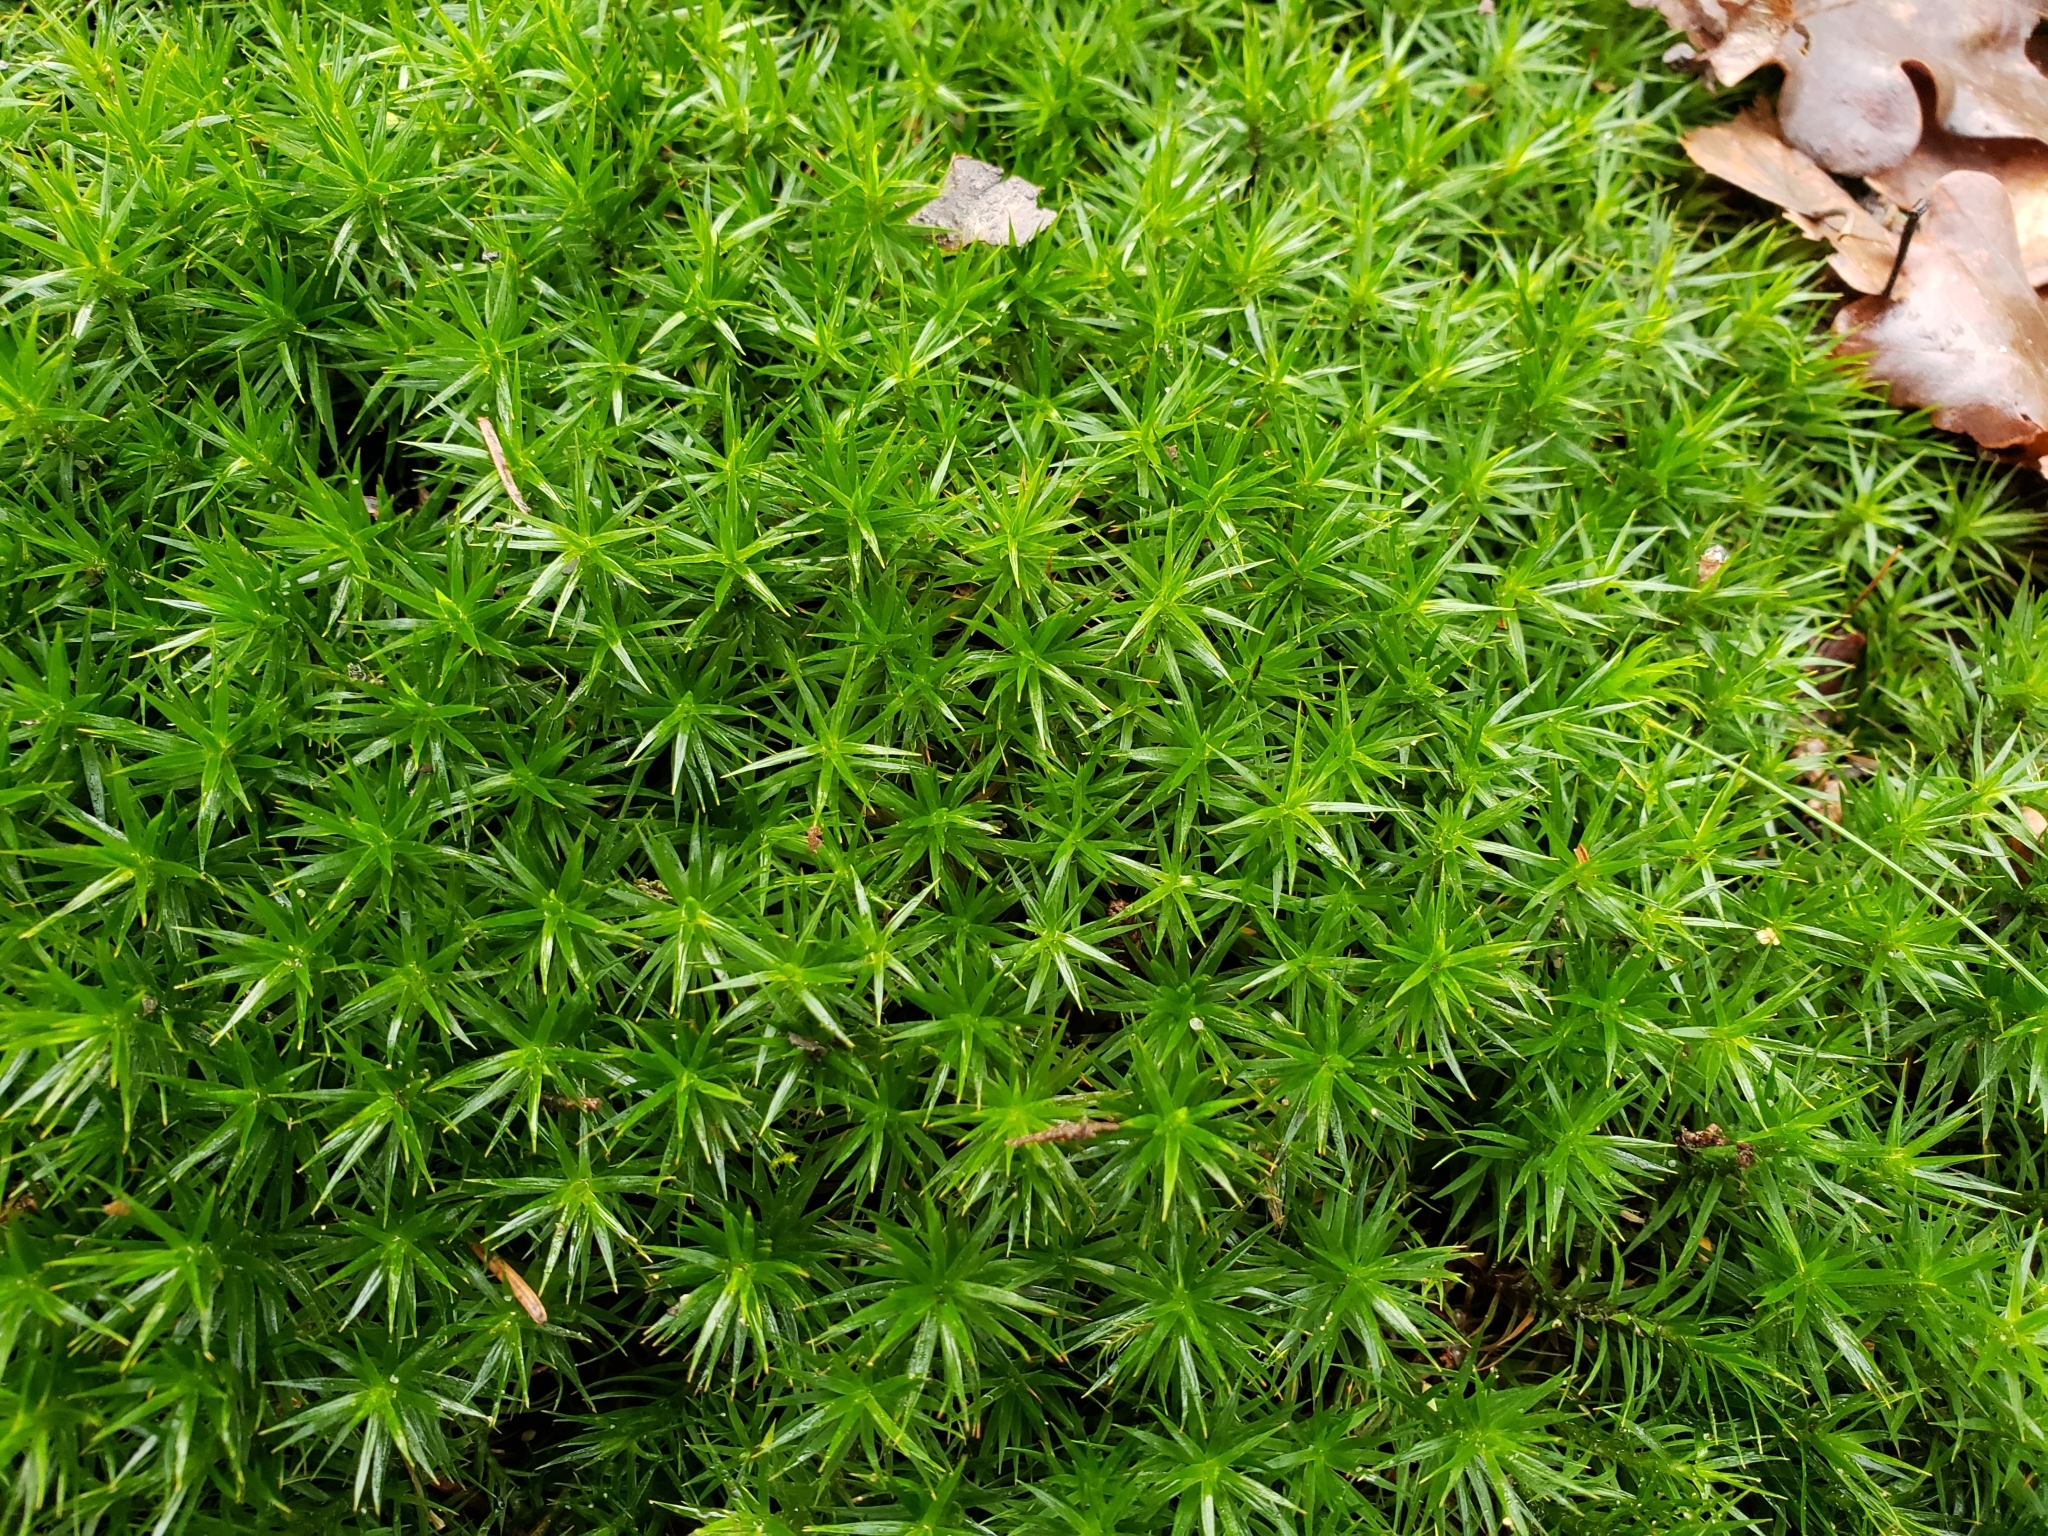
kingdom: Plantae
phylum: Bryophyta
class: Polytrichopsida
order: Polytrichales
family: Polytrichaceae
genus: Polytrichum
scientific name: Polytrichum formosum
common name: Bank haircap moss
